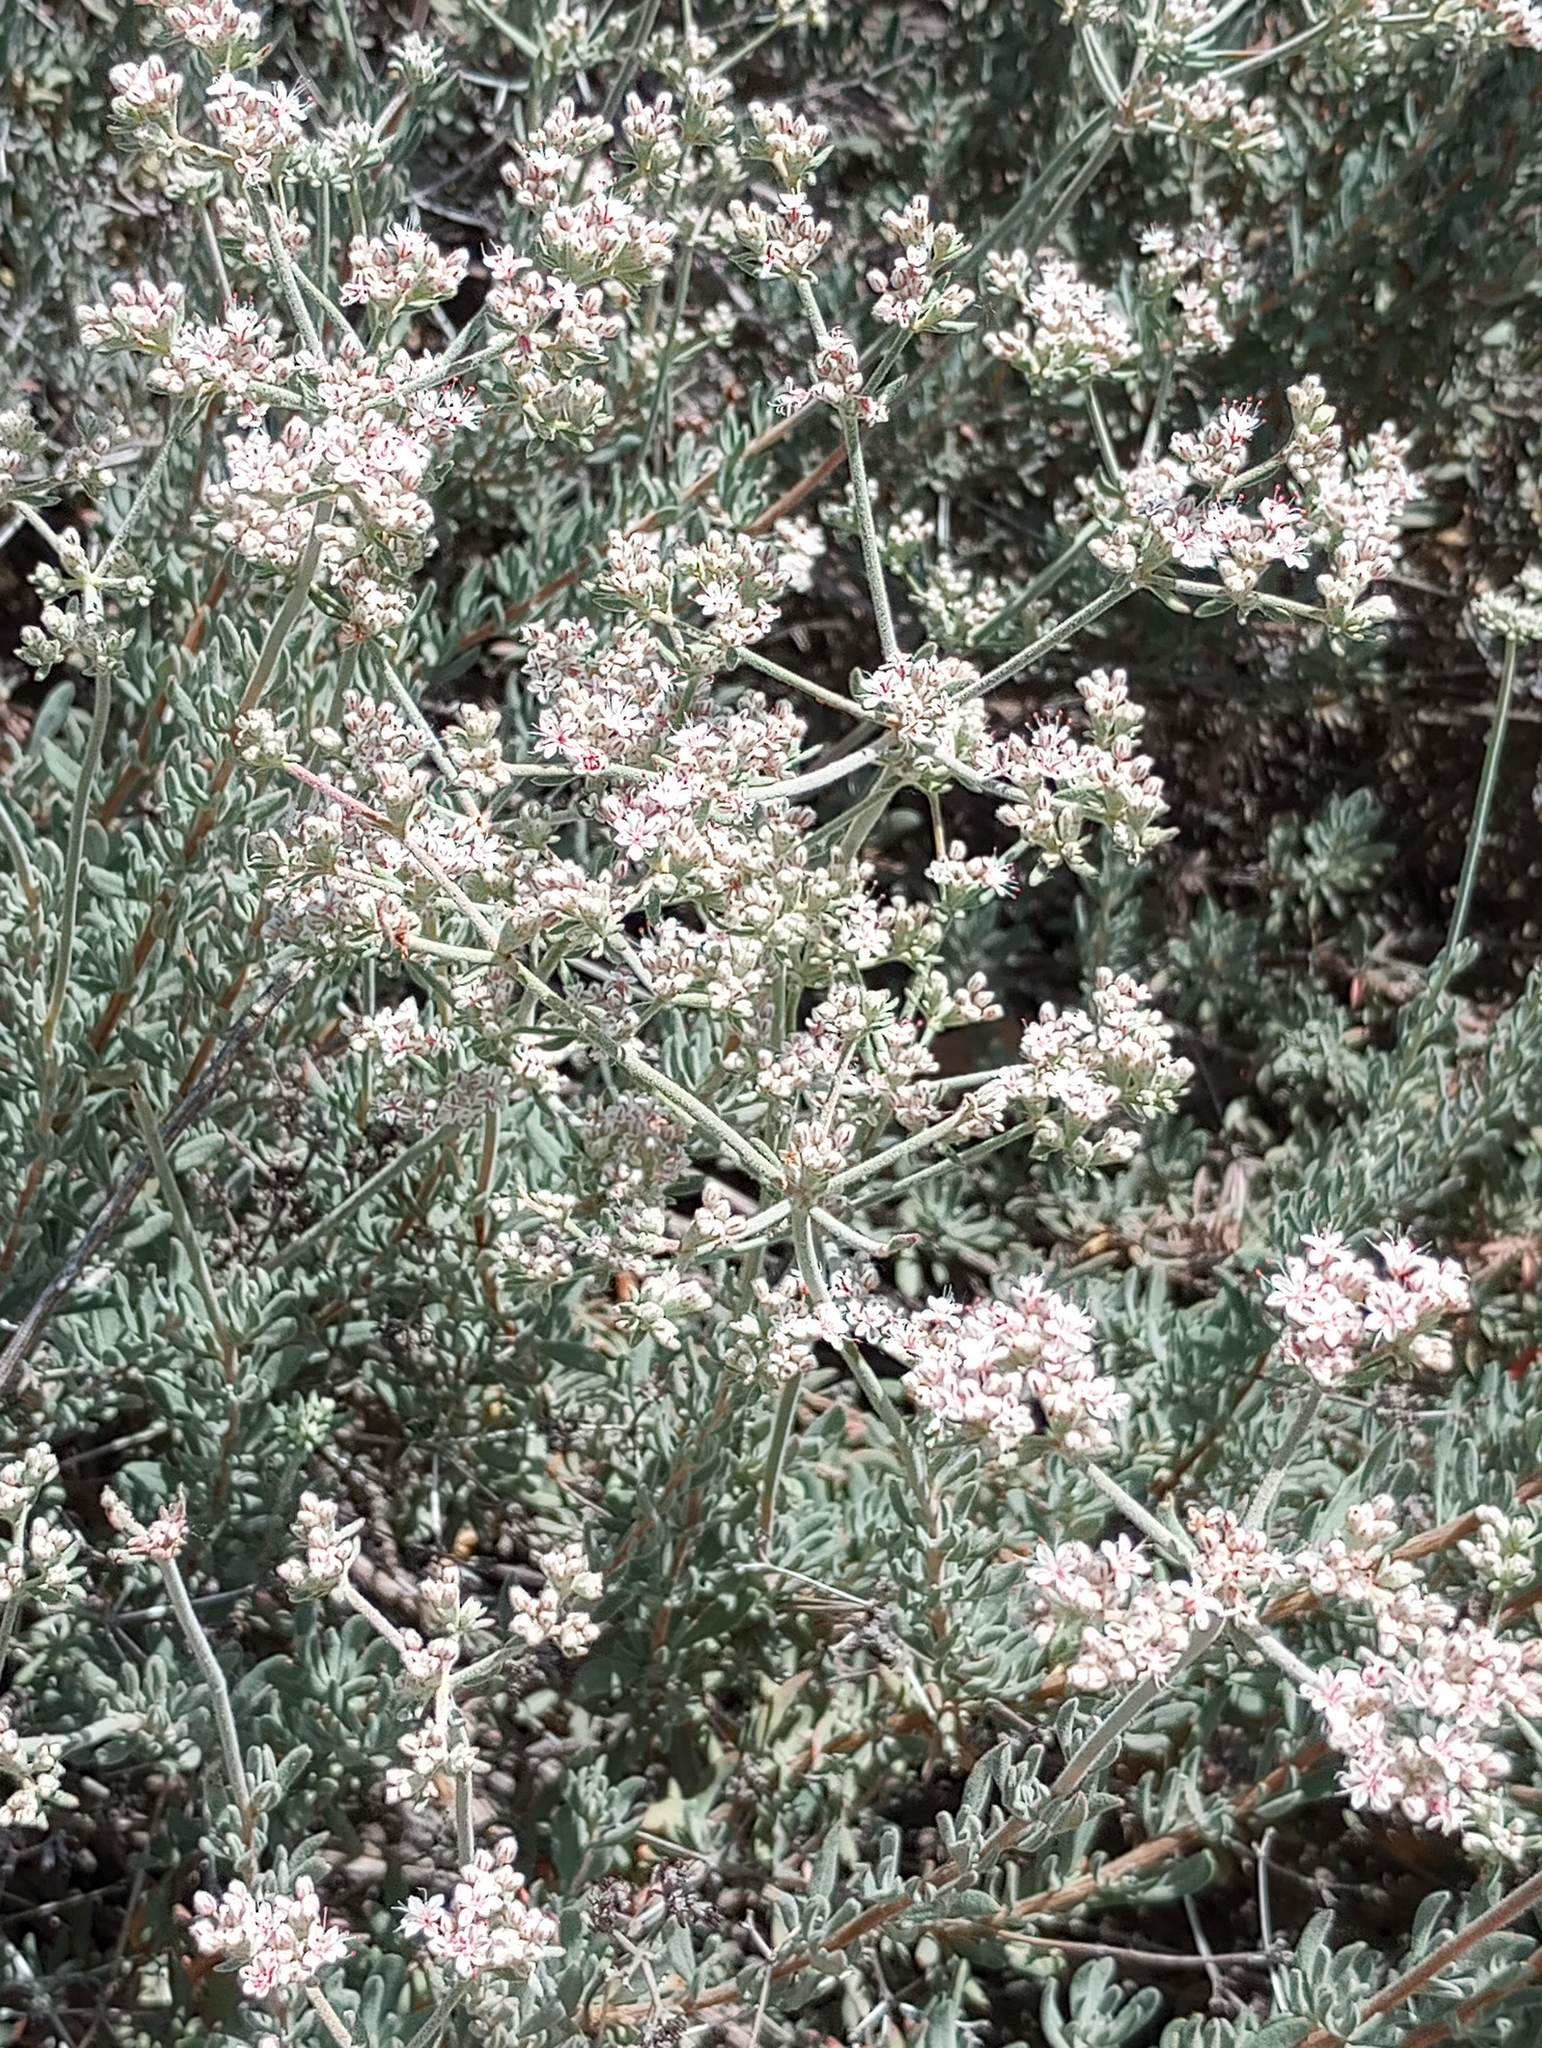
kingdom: Plantae
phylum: Tracheophyta
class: Magnoliopsida
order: Caryophyllales
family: Polygonaceae
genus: Eriogonum
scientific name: Eriogonum fasciculatum
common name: California wild buckwheat
